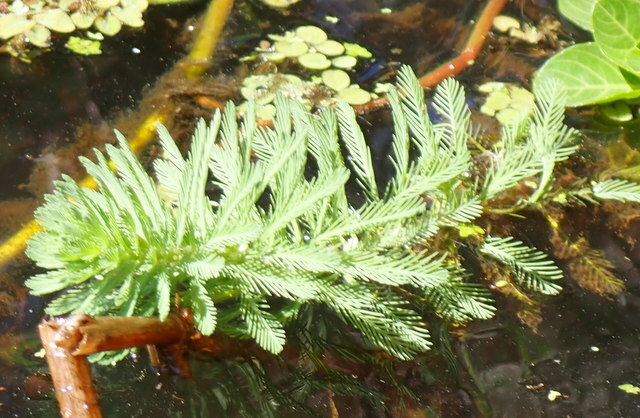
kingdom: Plantae
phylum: Tracheophyta
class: Magnoliopsida
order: Saxifragales
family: Haloragaceae
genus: Myriophyllum
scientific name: Myriophyllum aquaticum
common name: Parrot's feather
